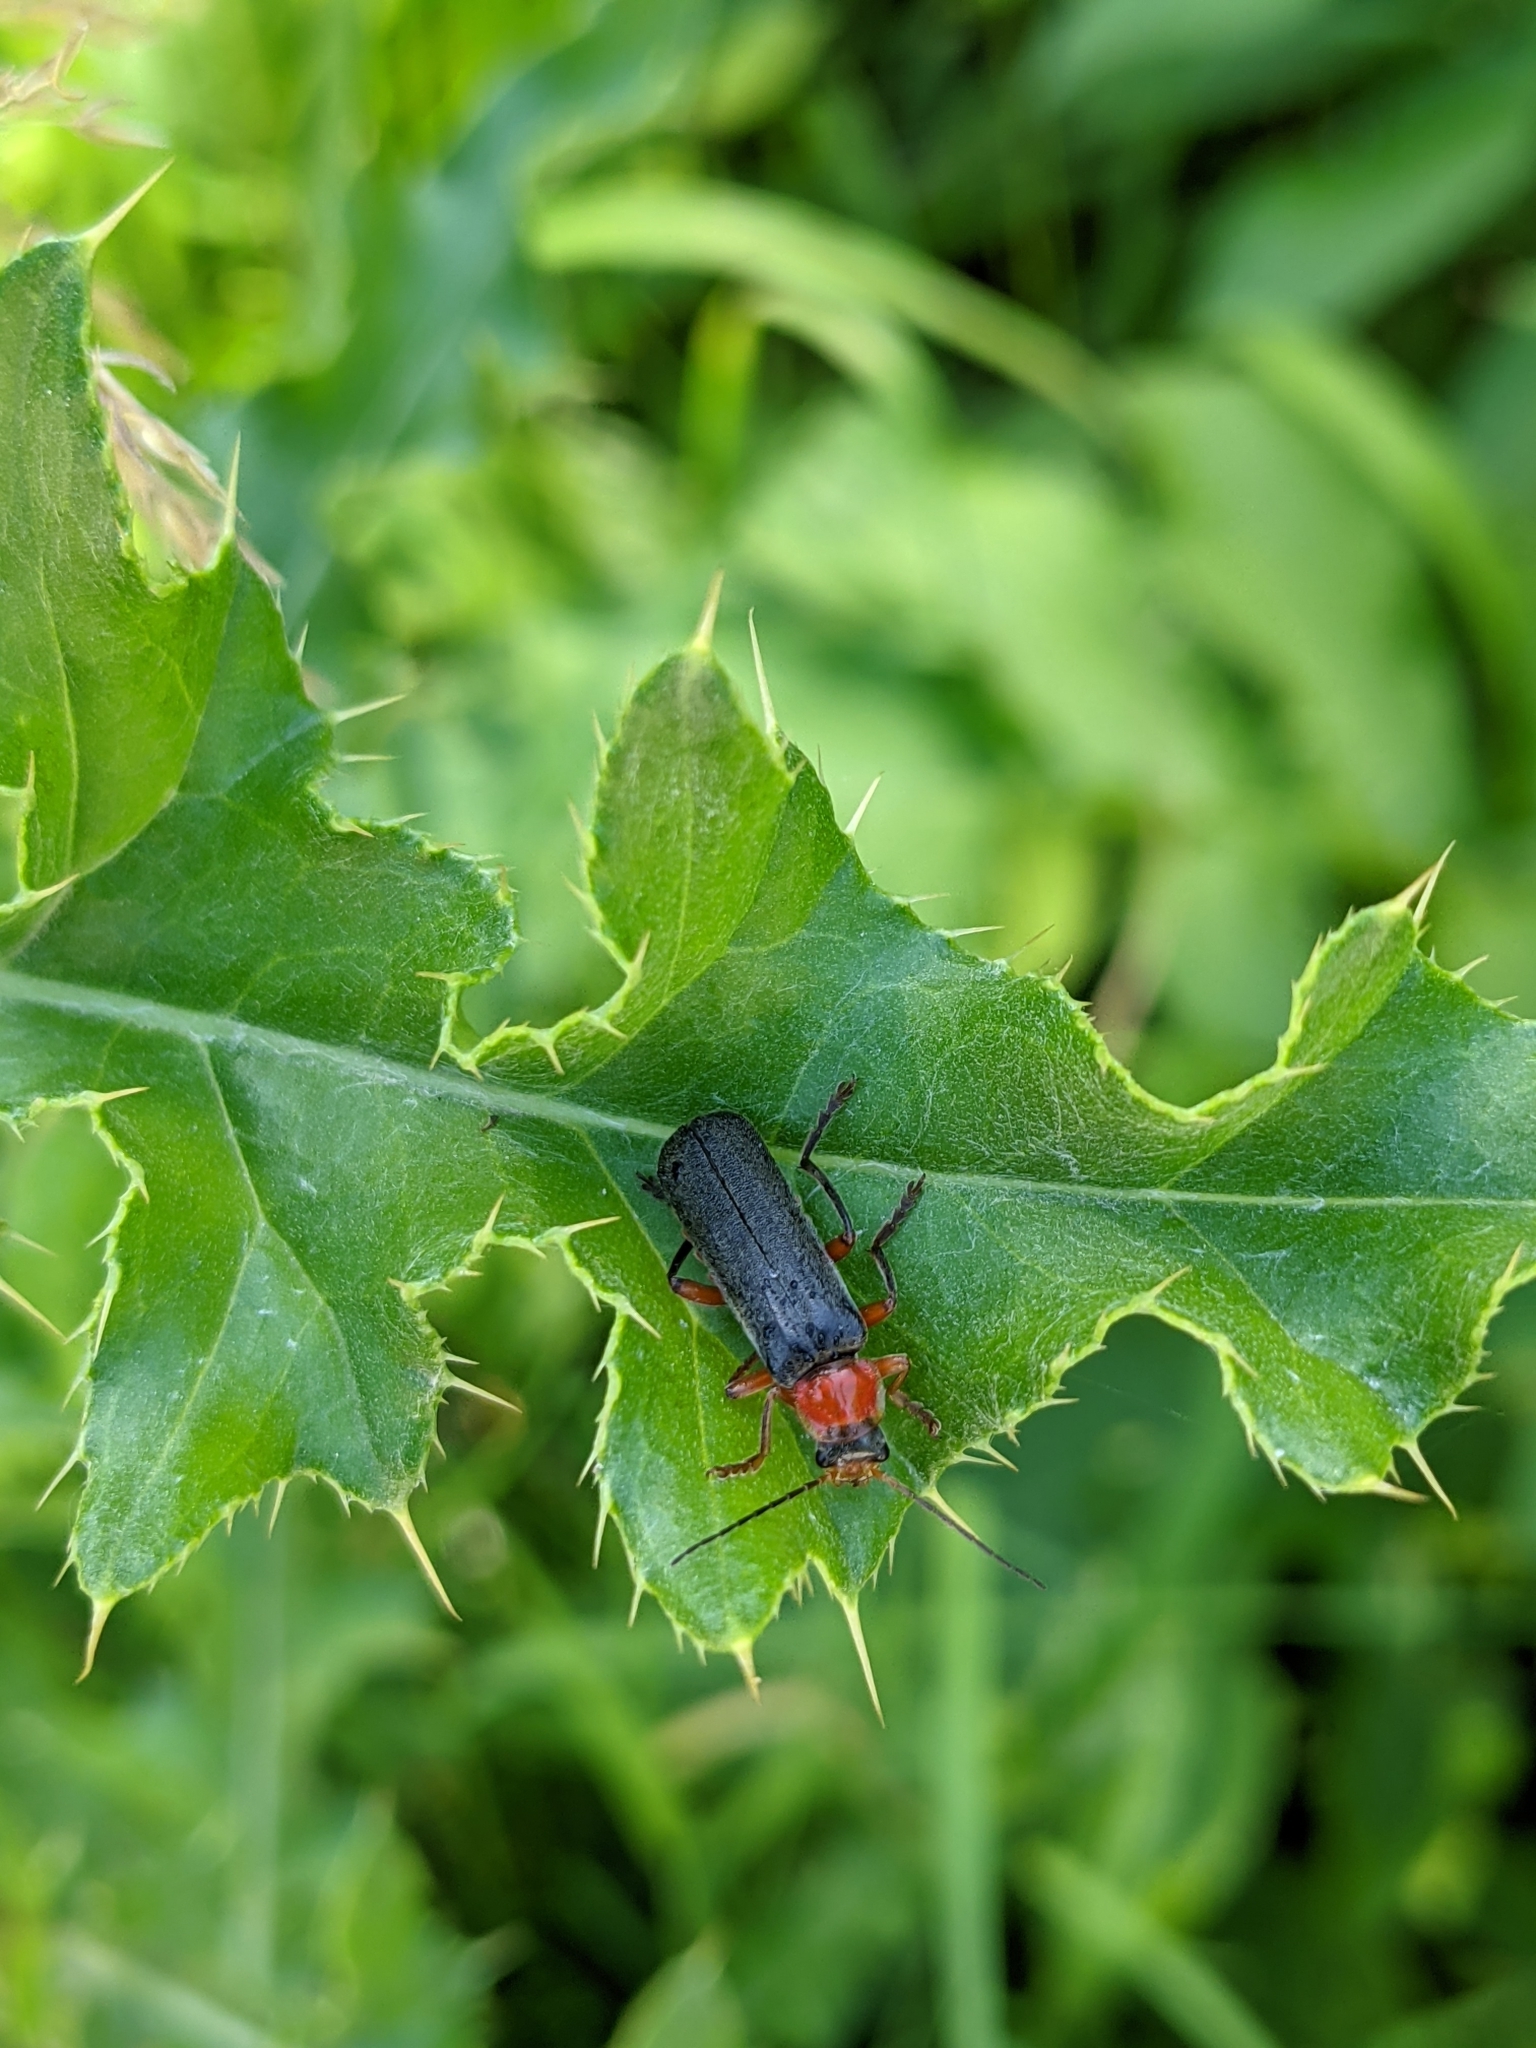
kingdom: Animalia
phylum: Arthropoda
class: Insecta
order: Coleoptera
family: Cantharidae
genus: Cantharis
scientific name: Cantharis pellucida
